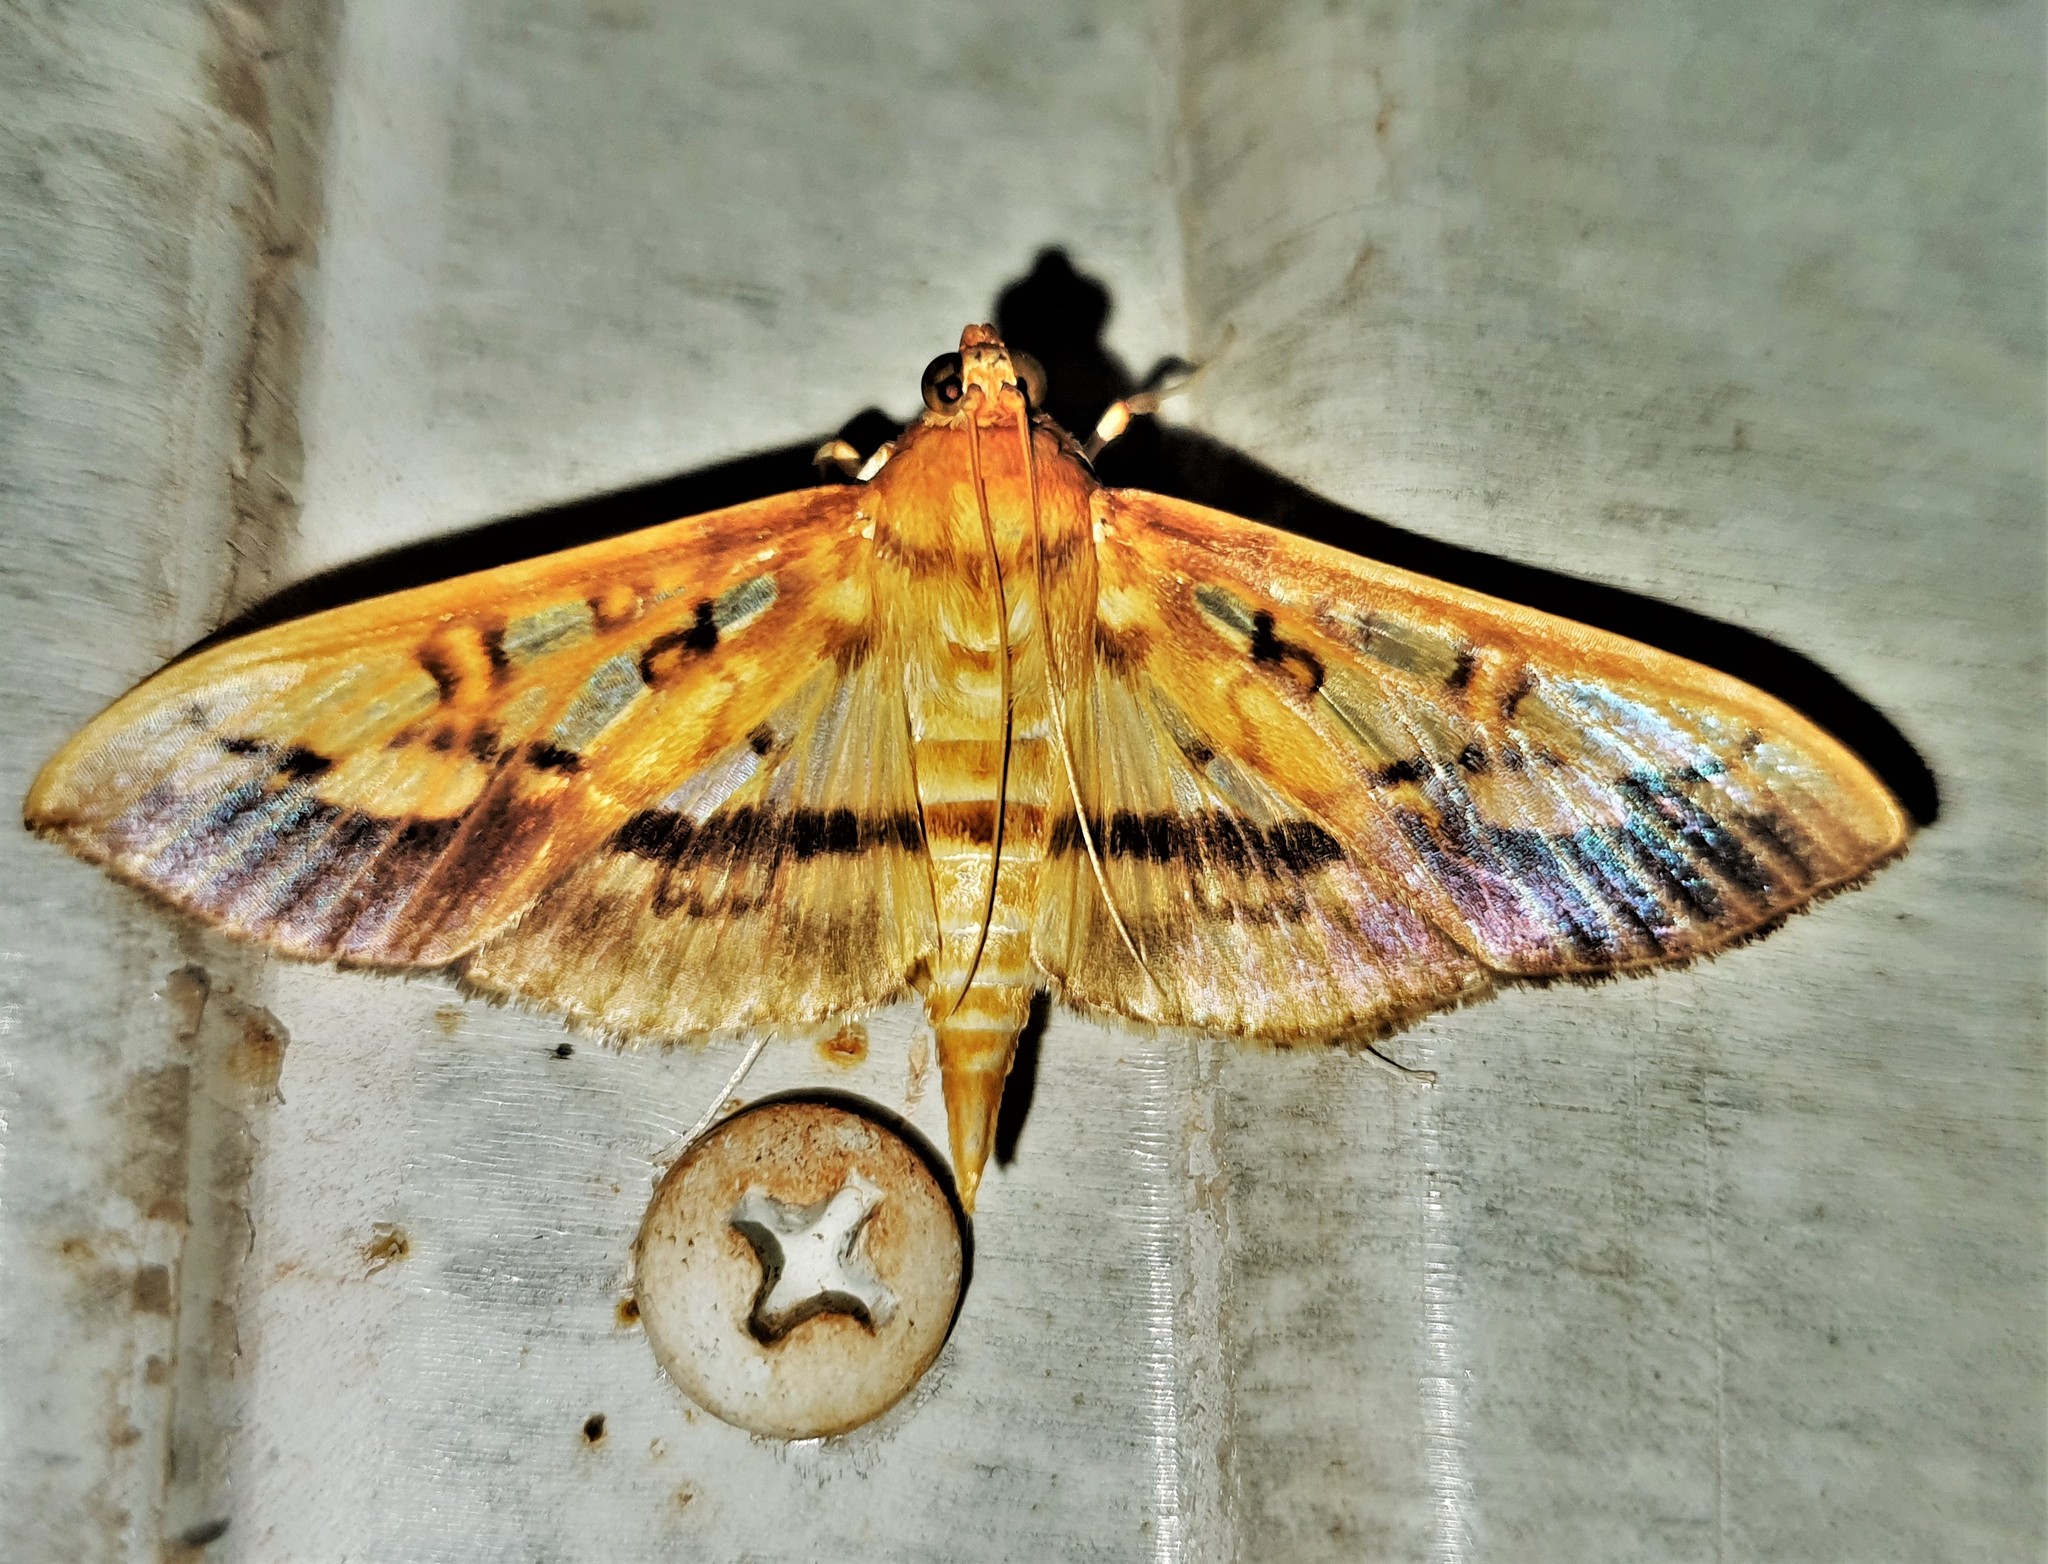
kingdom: Animalia
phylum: Arthropoda
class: Insecta
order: Lepidoptera
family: Crambidae
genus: Micromartinia
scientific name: Micromartinia mnemusalis
